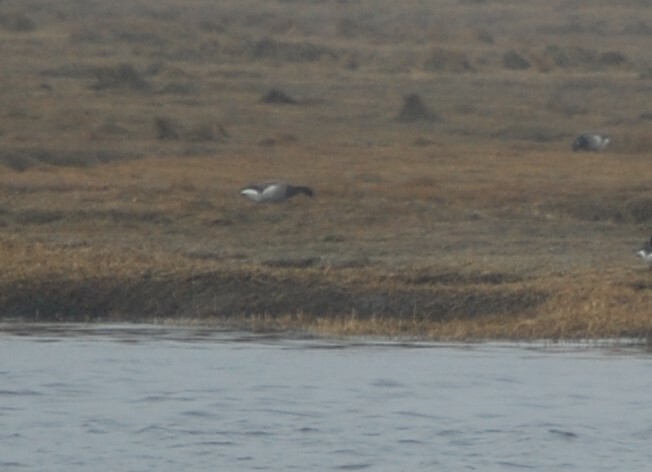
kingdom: Animalia
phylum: Chordata
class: Aves
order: Anseriformes
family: Anatidae
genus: Branta
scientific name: Branta bernicla
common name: Brant goose
